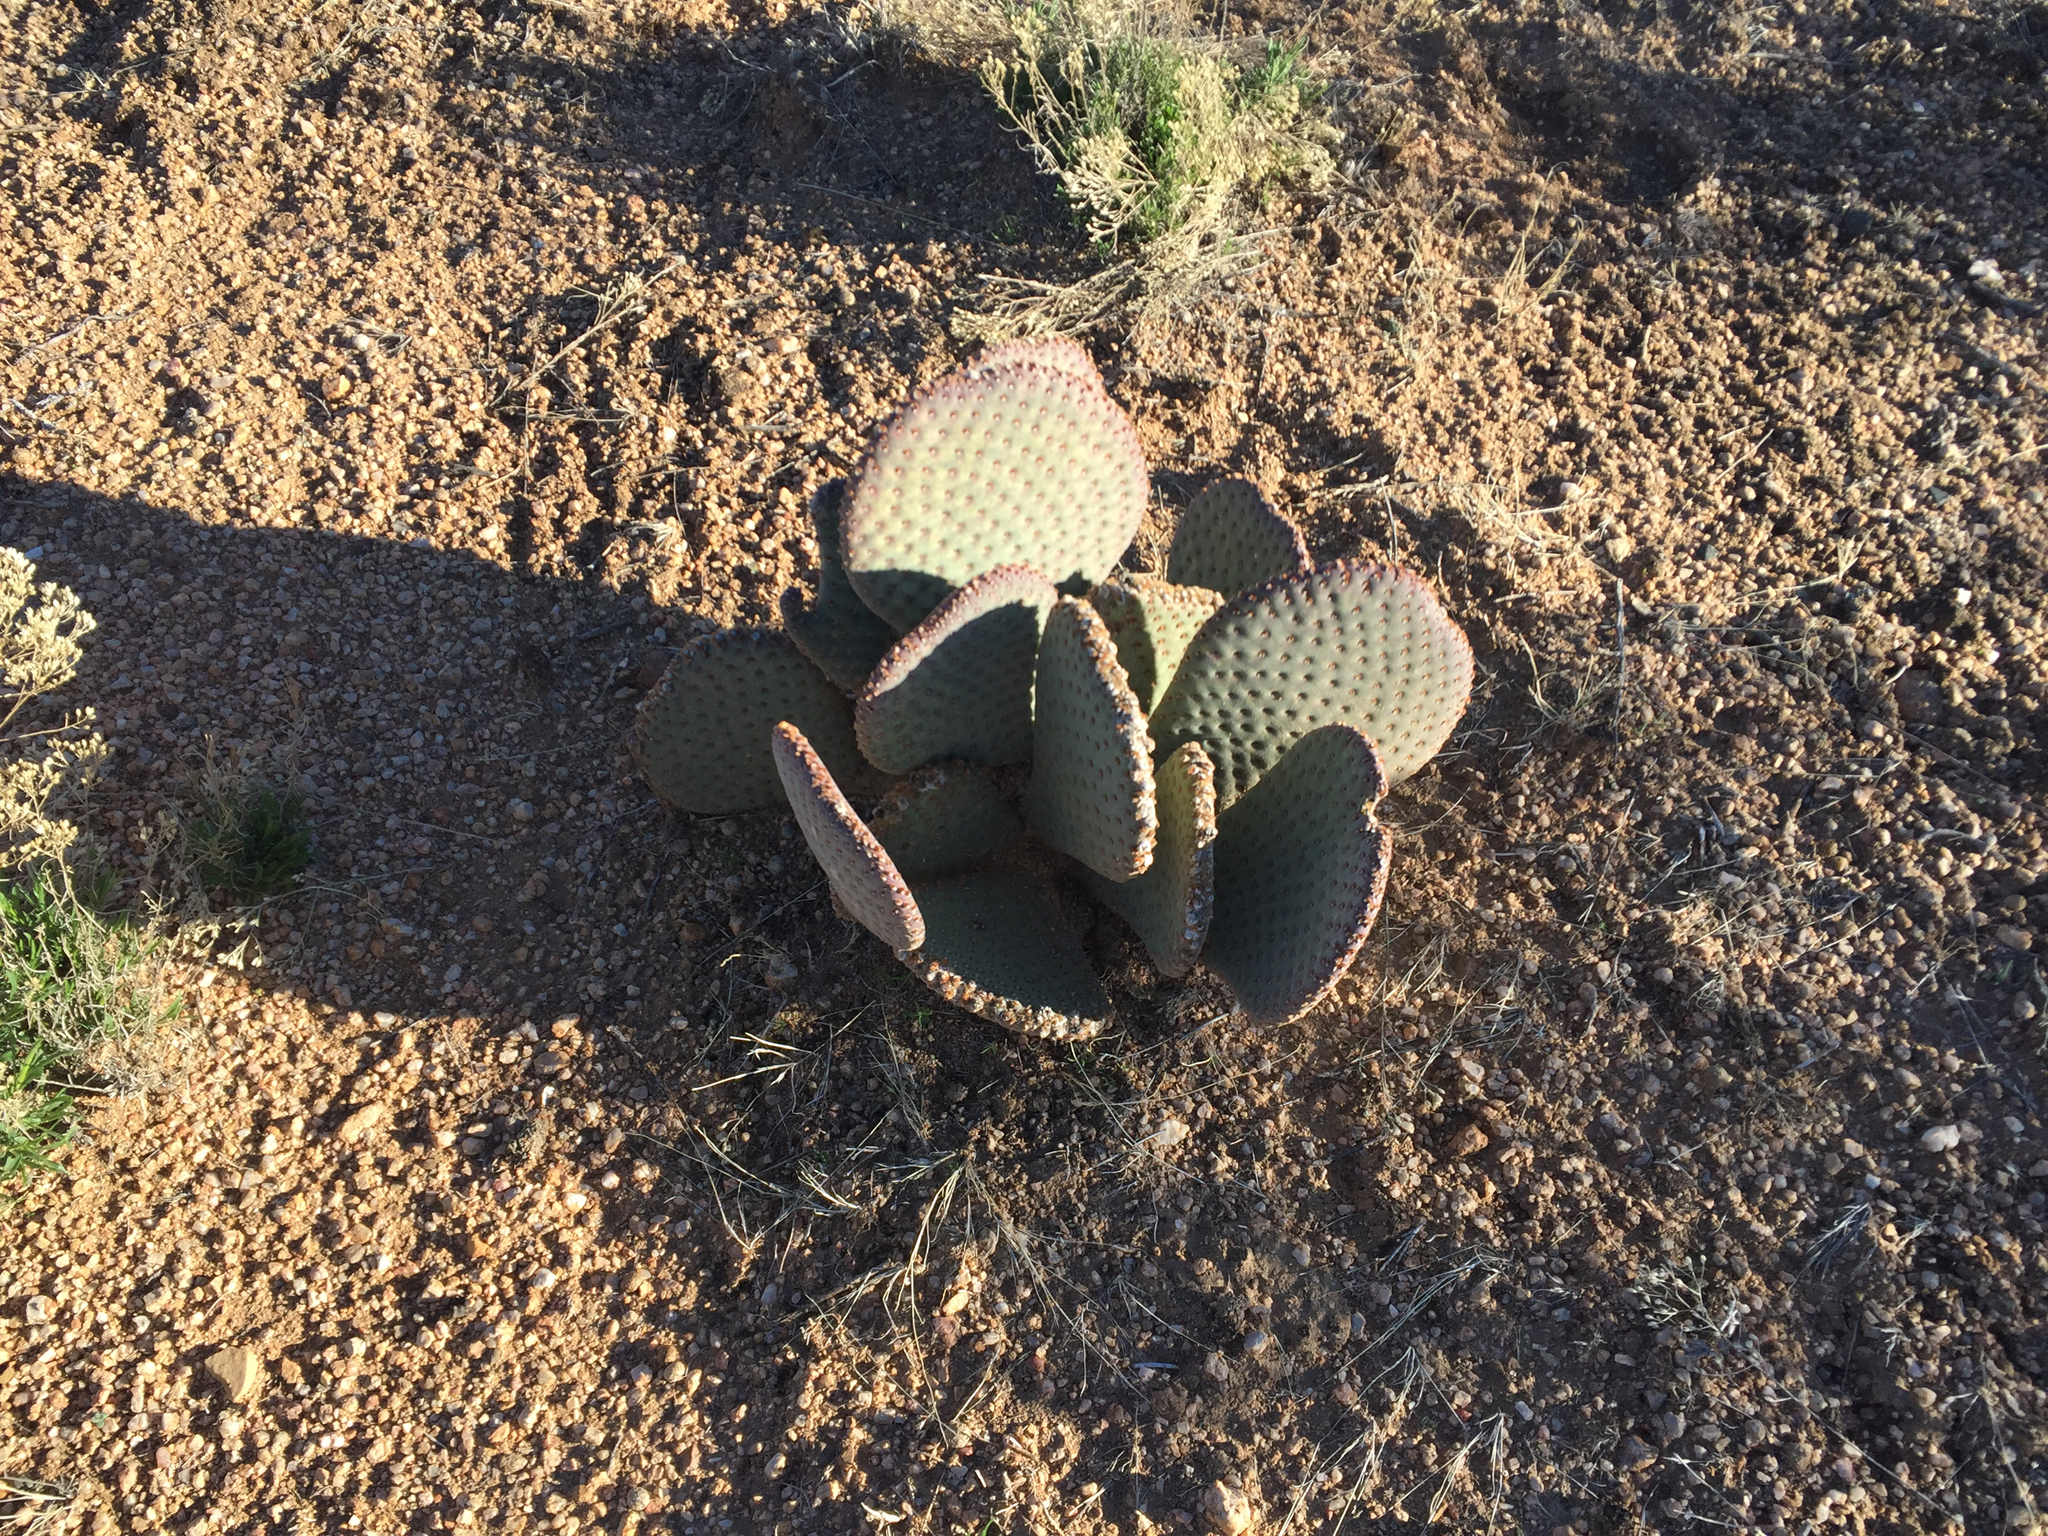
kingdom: Plantae
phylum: Tracheophyta
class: Magnoliopsida
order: Caryophyllales
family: Cactaceae
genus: Opuntia
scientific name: Opuntia basilaris
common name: Beavertail prickly-pear
